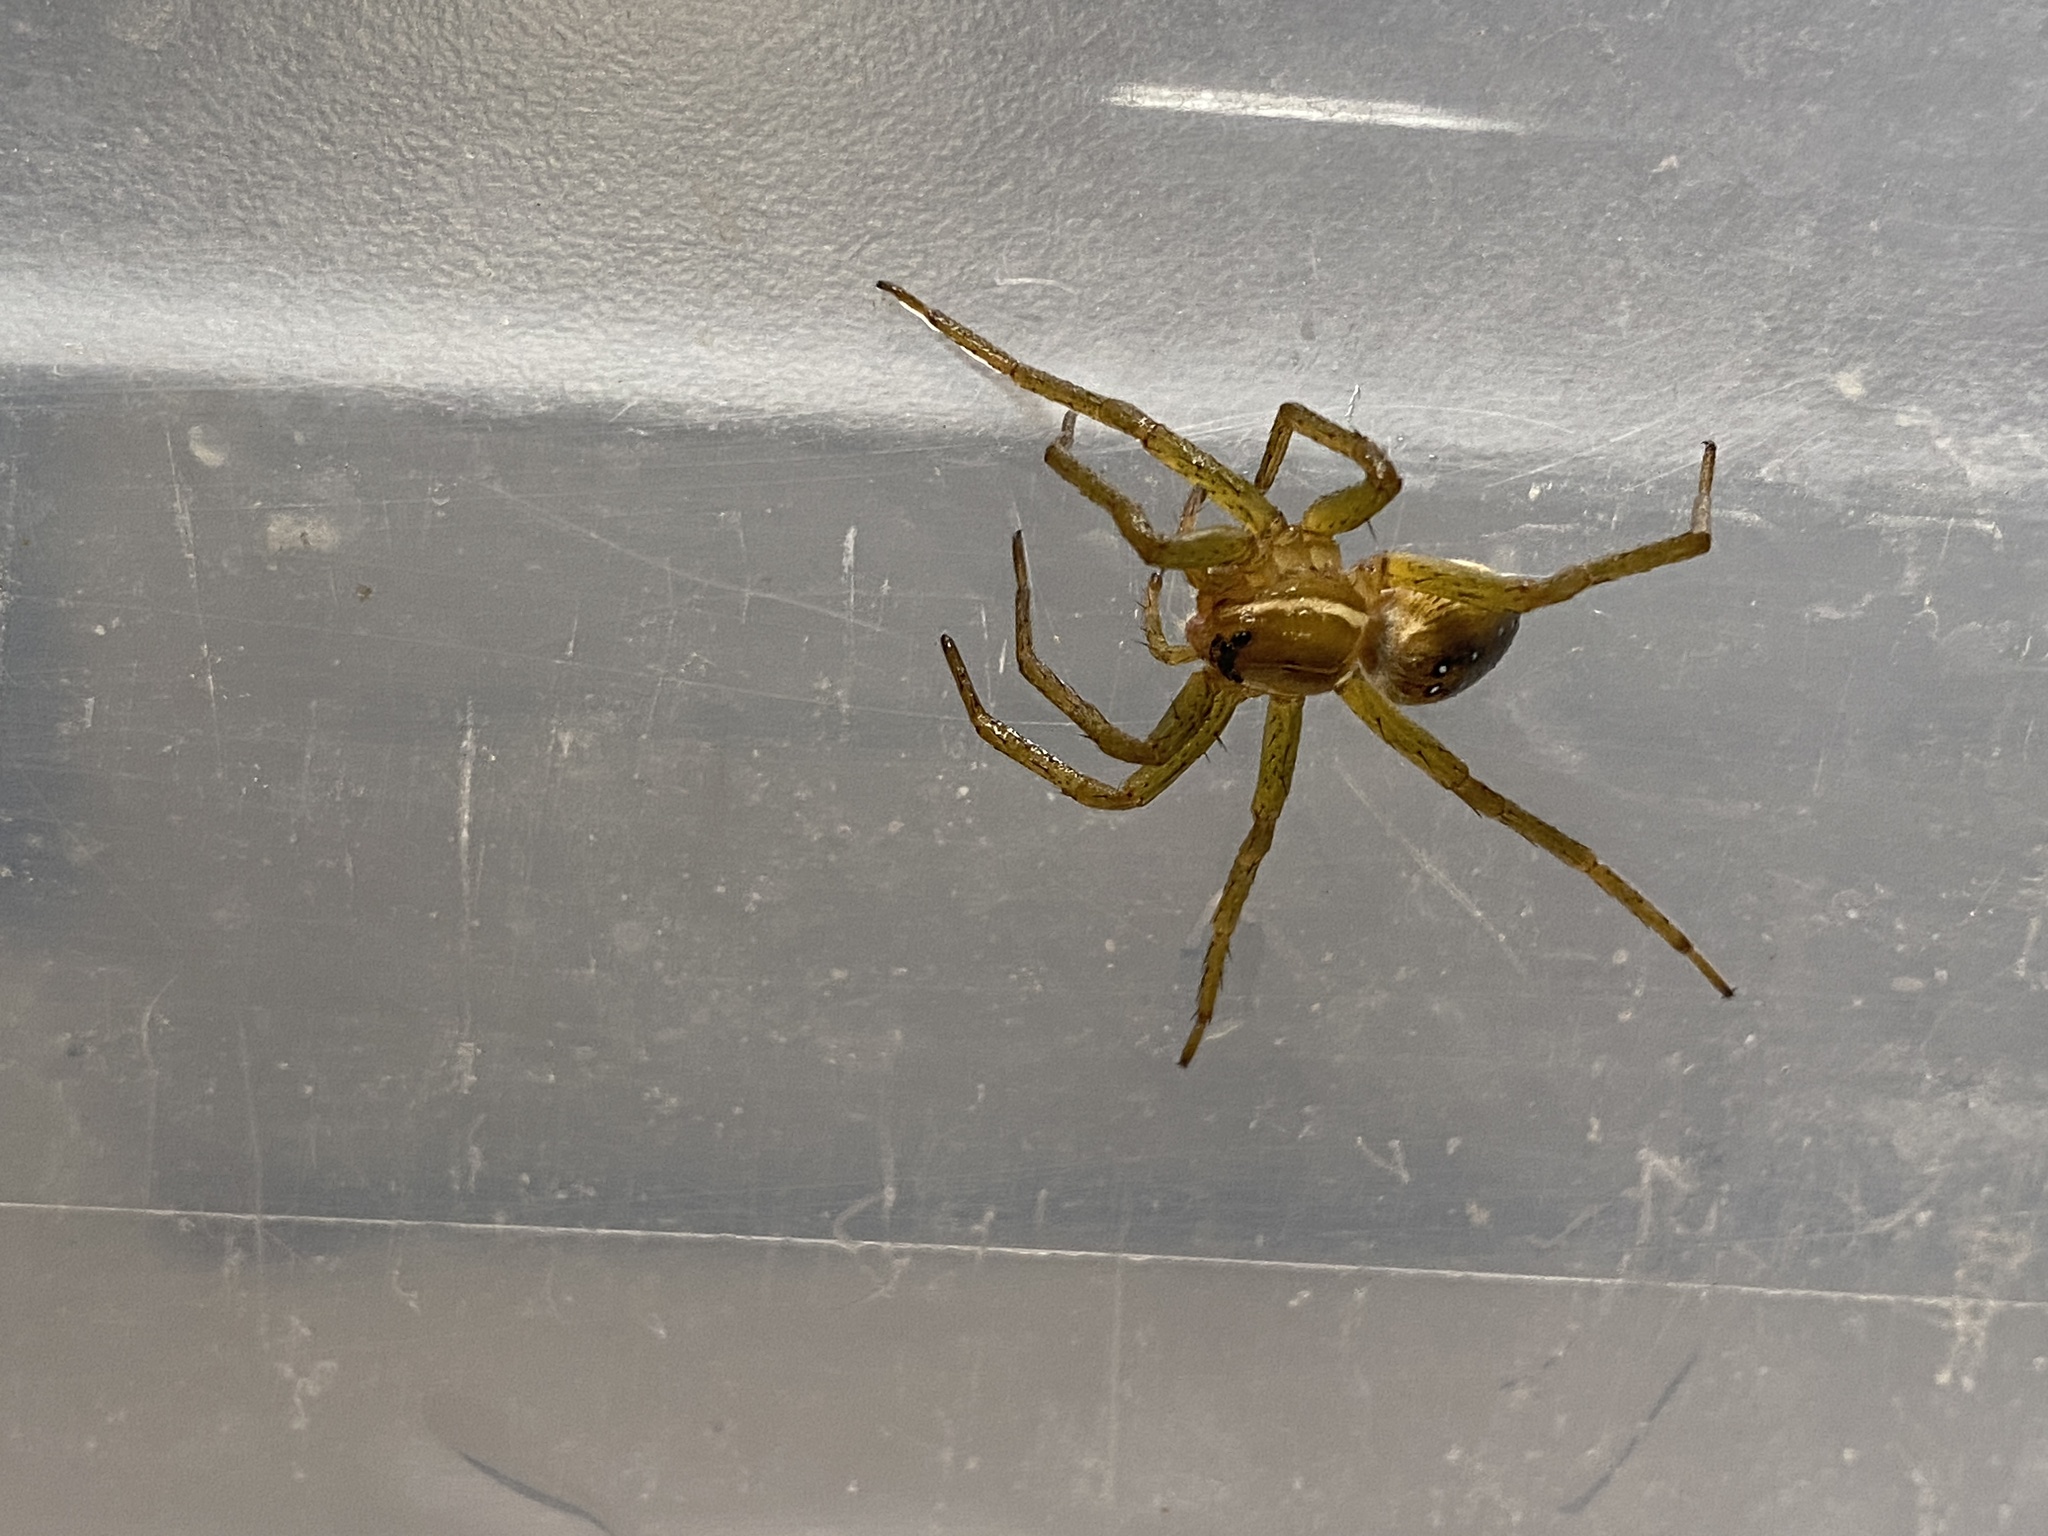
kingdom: Animalia
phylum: Arthropoda
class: Arachnida
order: Araneae
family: Pisauridae
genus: Dolomedes
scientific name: Dolomedes triton
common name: Six-spotted fishing spider
